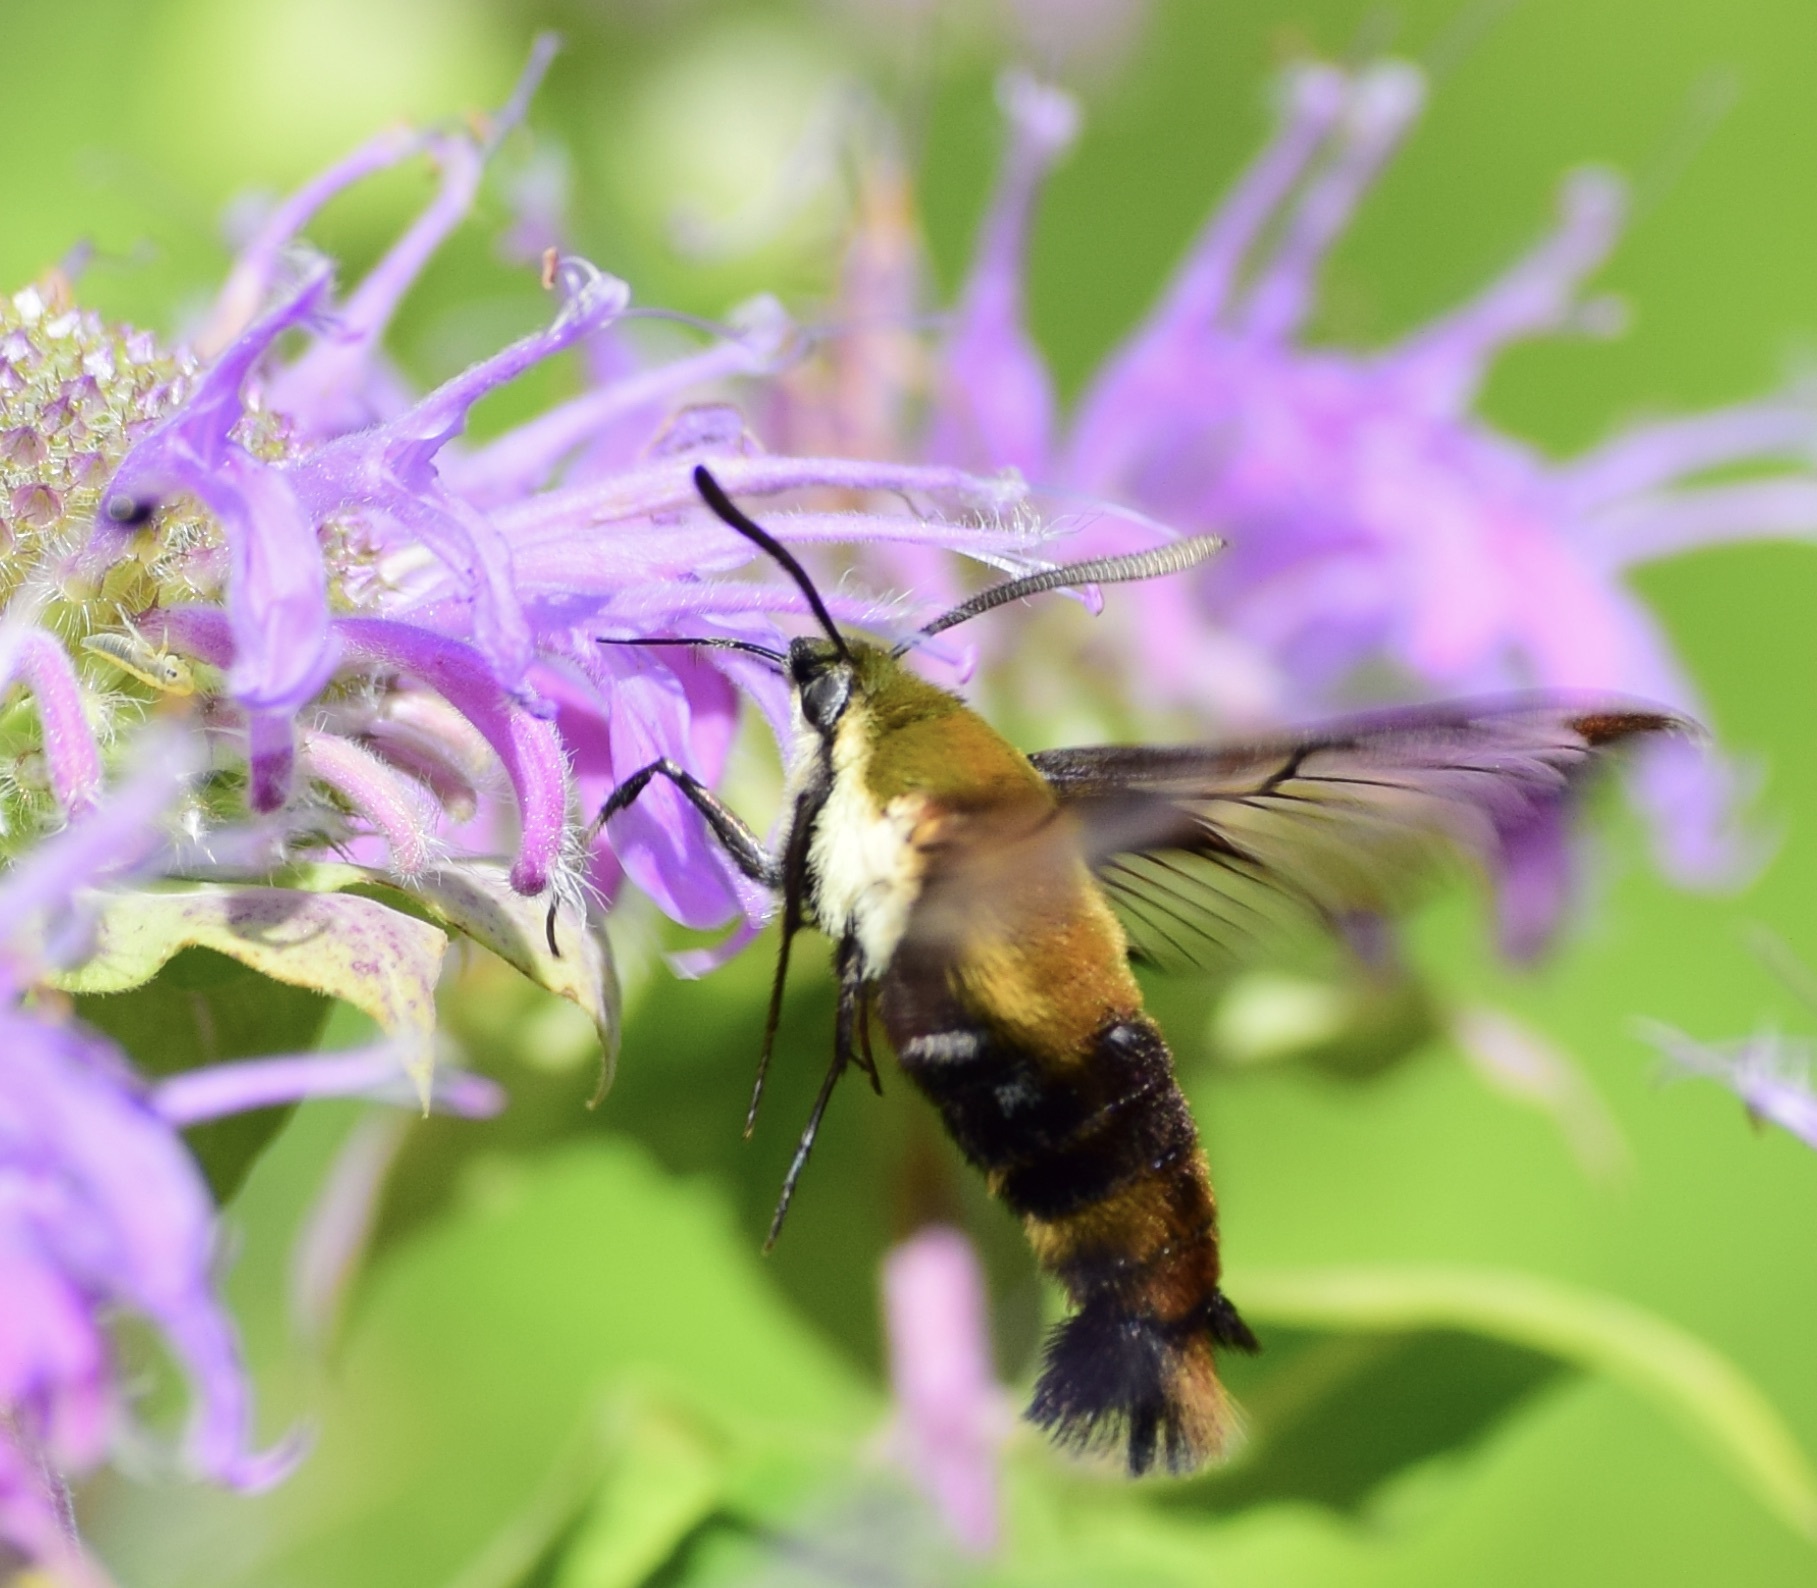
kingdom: Animalia
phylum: Arthropoda
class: Insecta
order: Lepidoptera
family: Sphingidae
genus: Hemaris
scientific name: Hemaris diffinis
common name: Bumblebee moth
